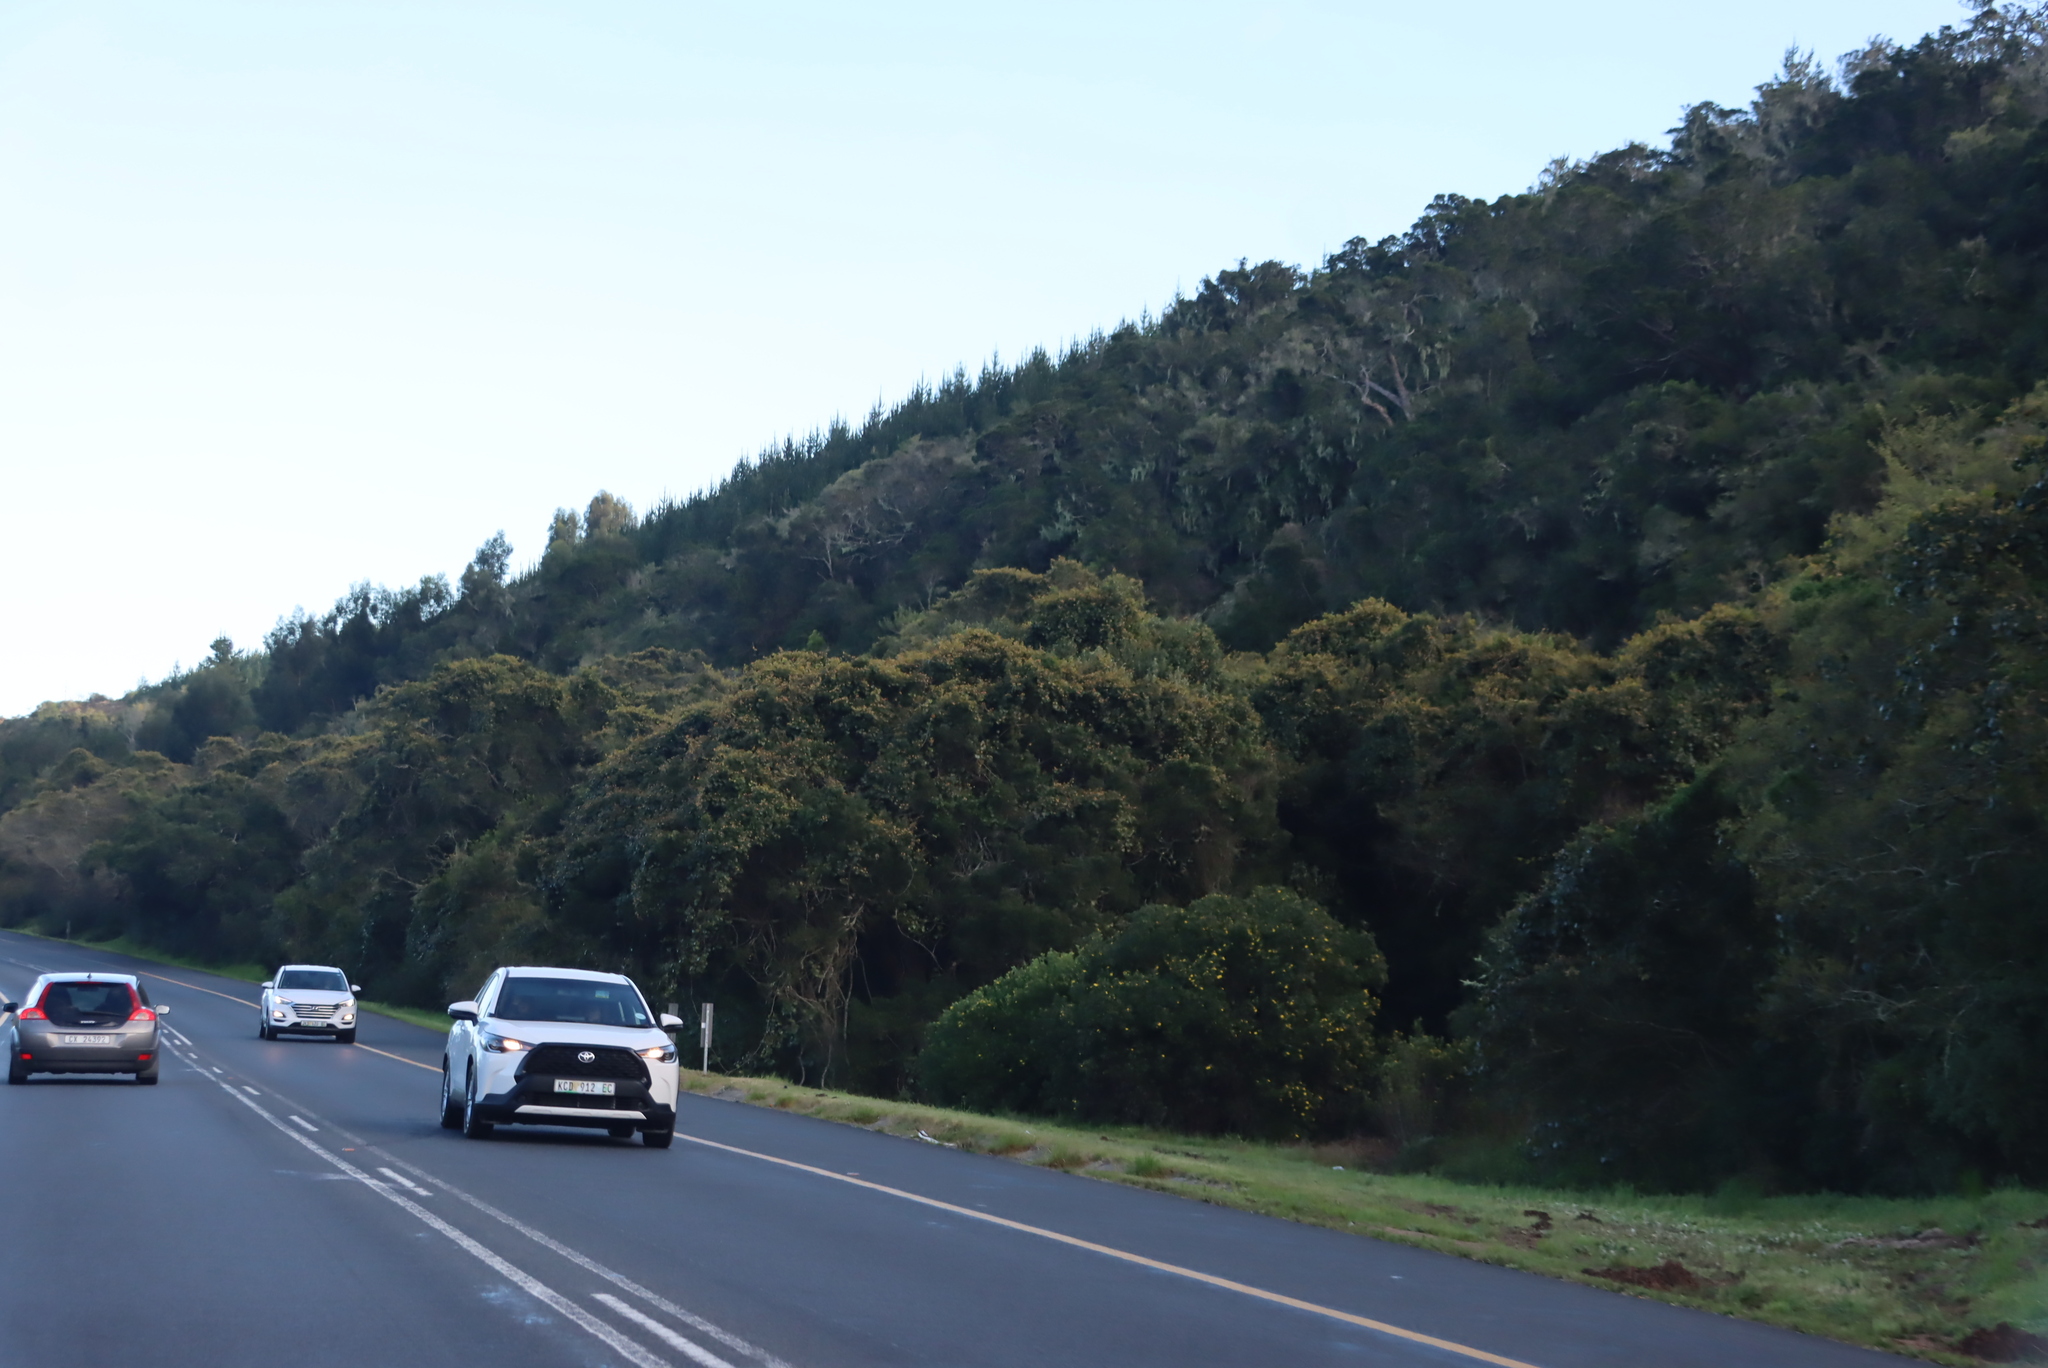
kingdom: Plantae
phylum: Tracheophyta
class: Magnoliopsida
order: Vitales
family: Vitaceae
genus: Rhoicissus
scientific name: Rhoicissus tomentosa
